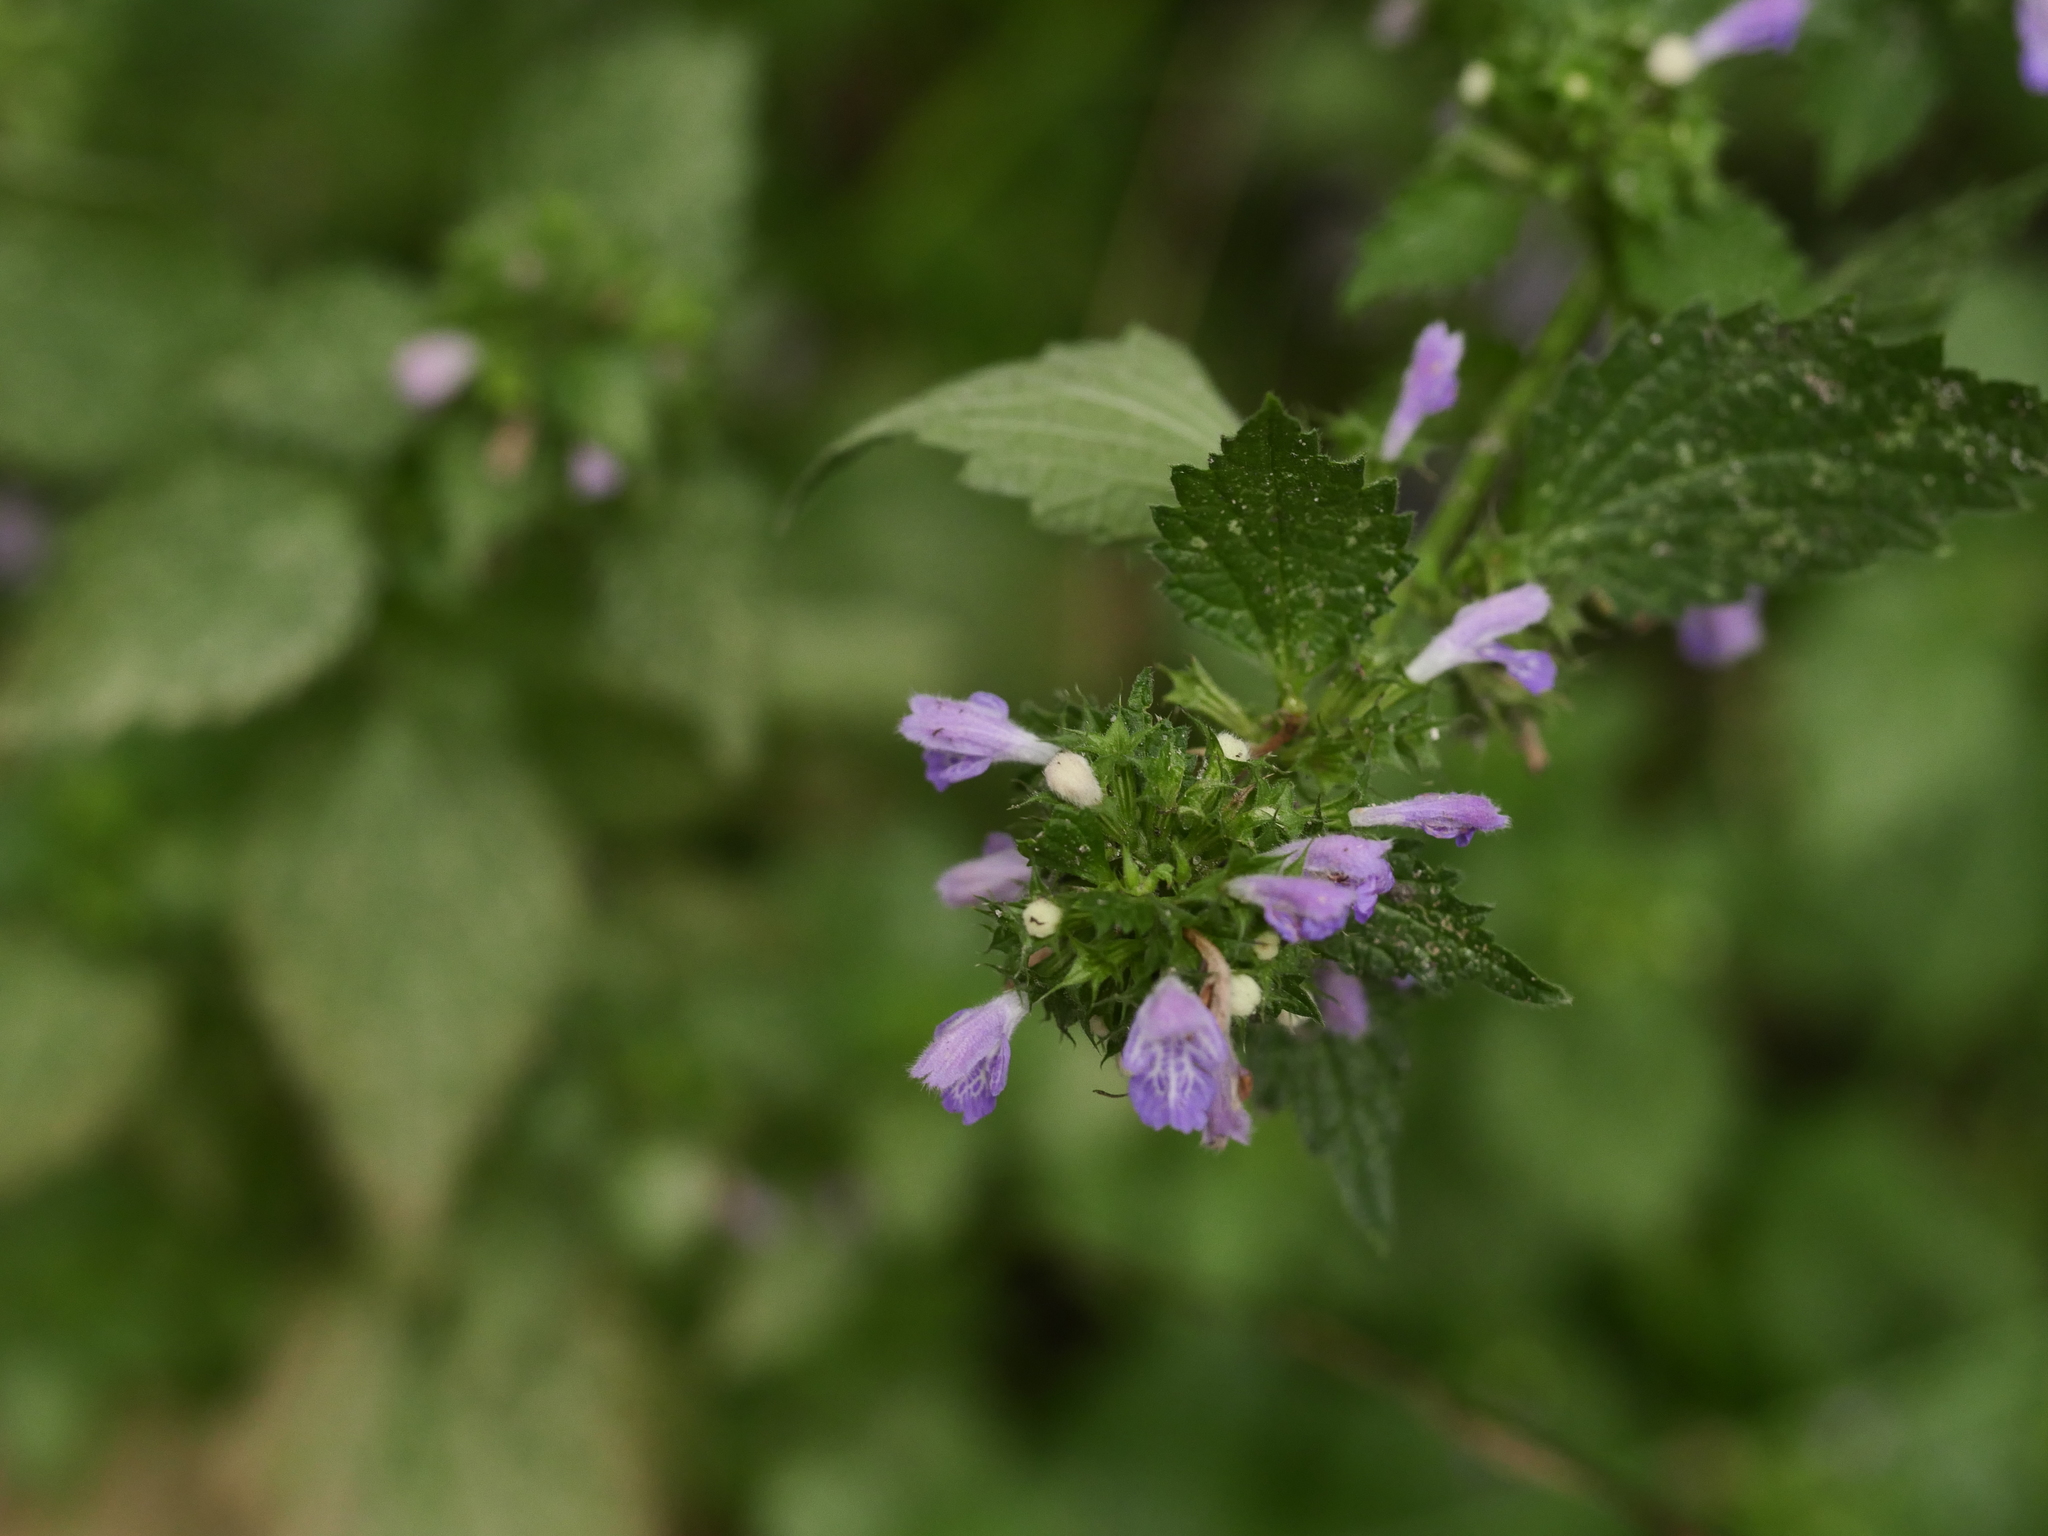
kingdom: Plantae
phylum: Tracheophyta
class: Magnoliopsida
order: Lamiales
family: Lamiaceae
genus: Ballota
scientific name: Ballota nigra
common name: Black horehound
